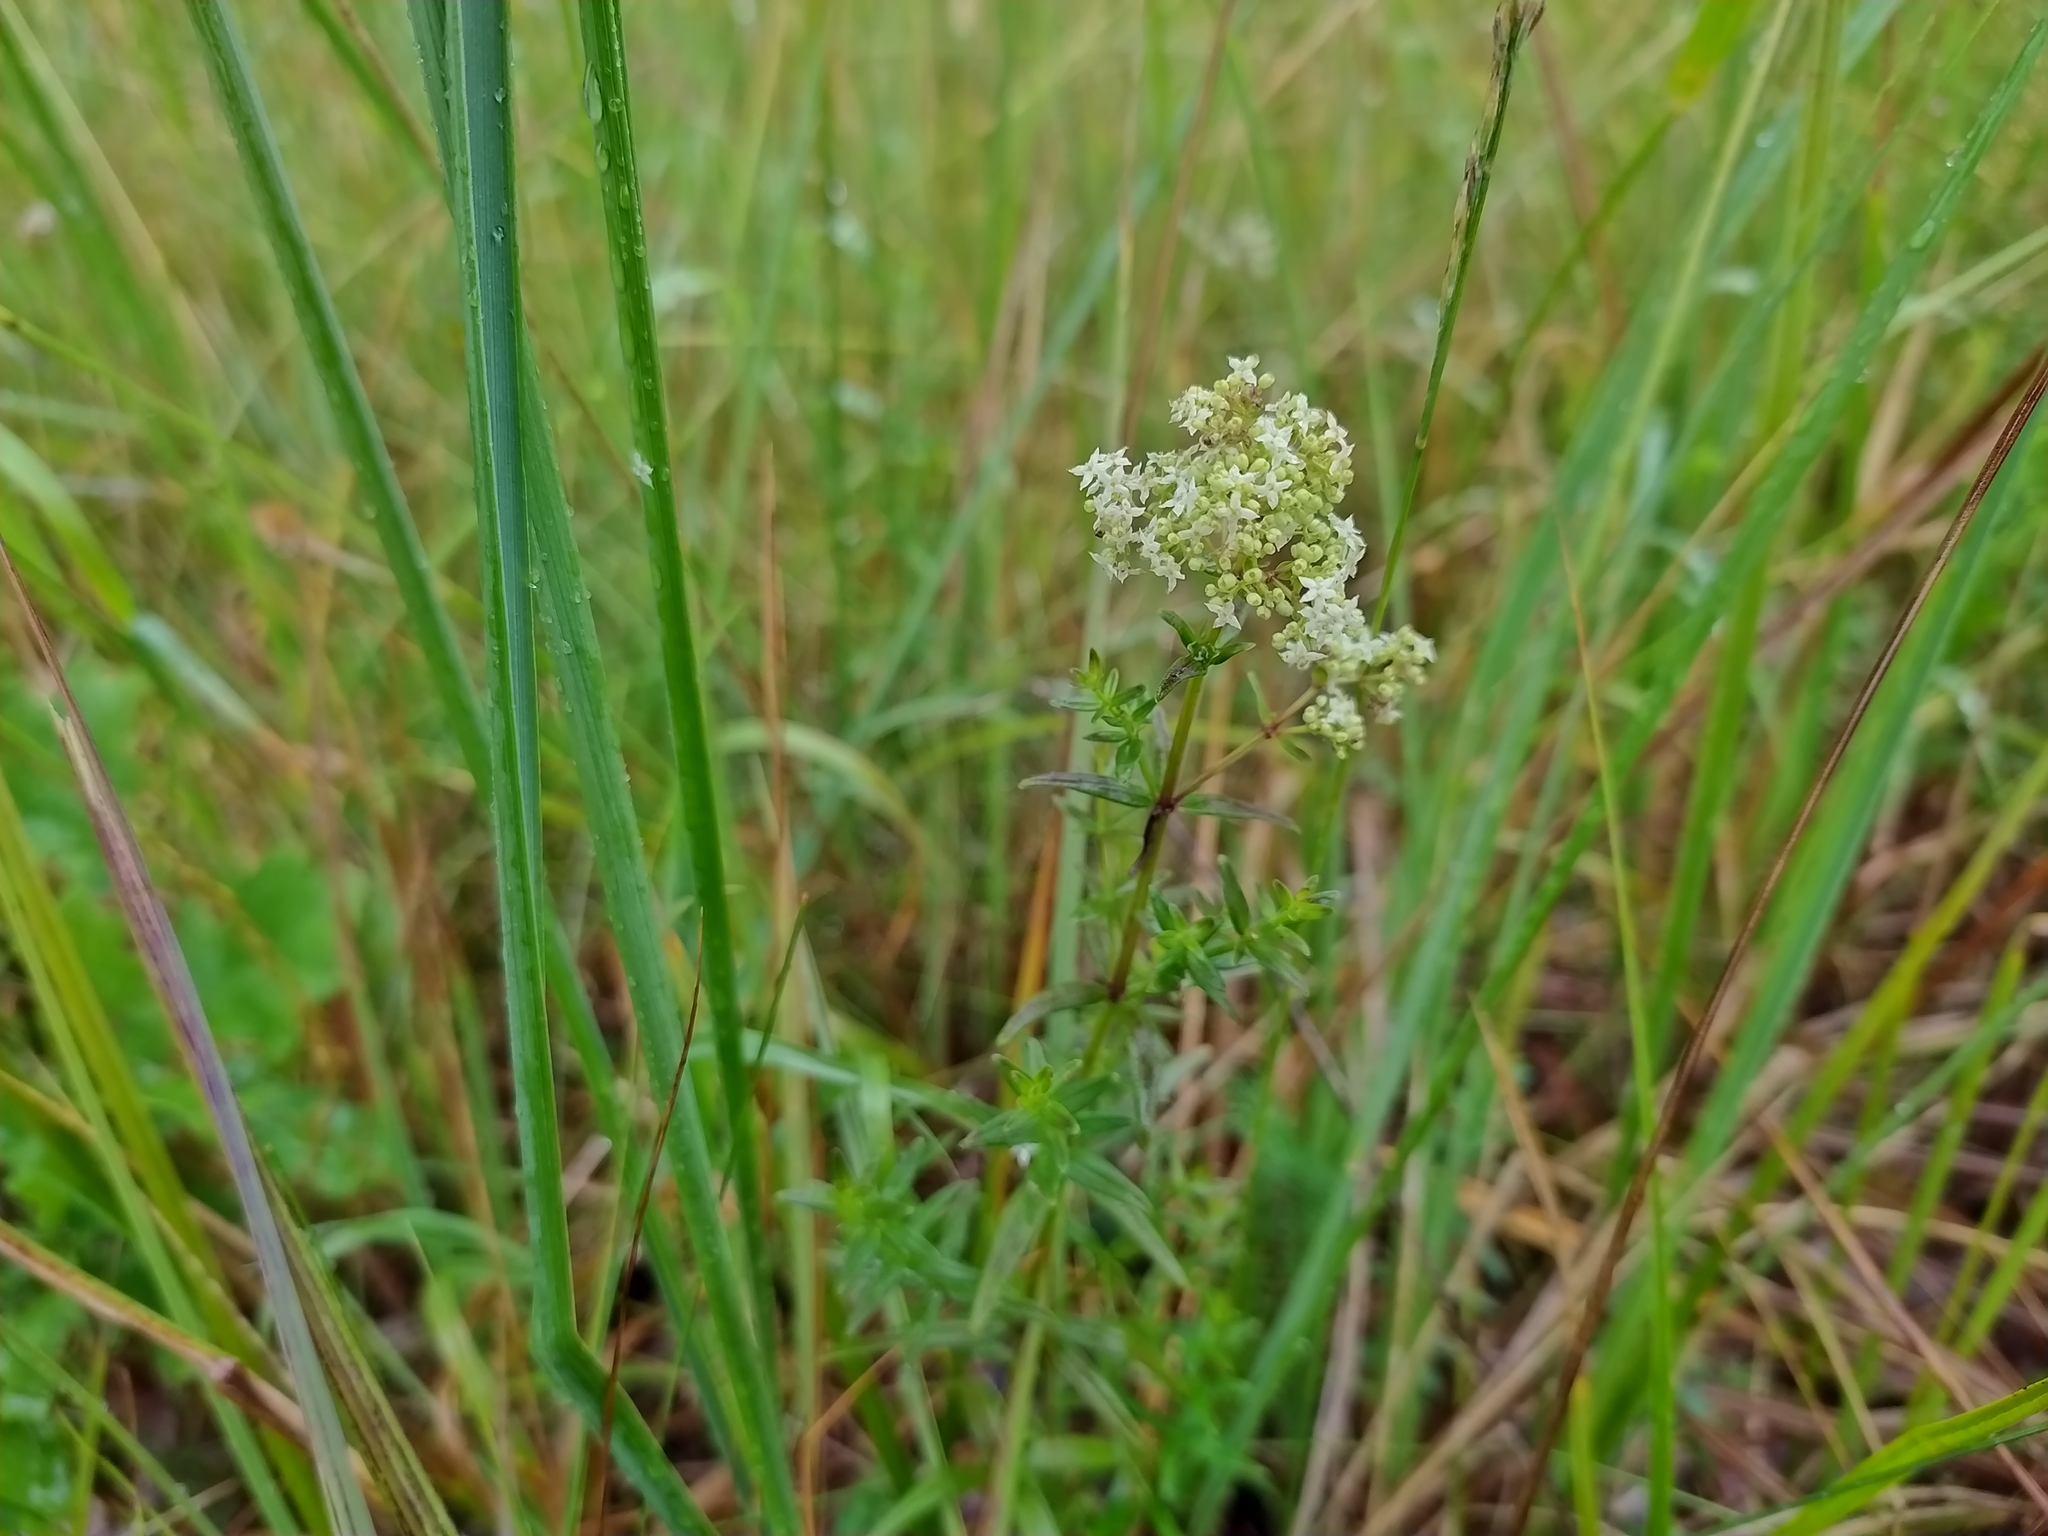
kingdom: Plantae
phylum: Tracheophyta
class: Magnoliopsida
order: Gentianales
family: Rubiaceae
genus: Galium
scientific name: Galium boreale
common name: Northern bedstraw
